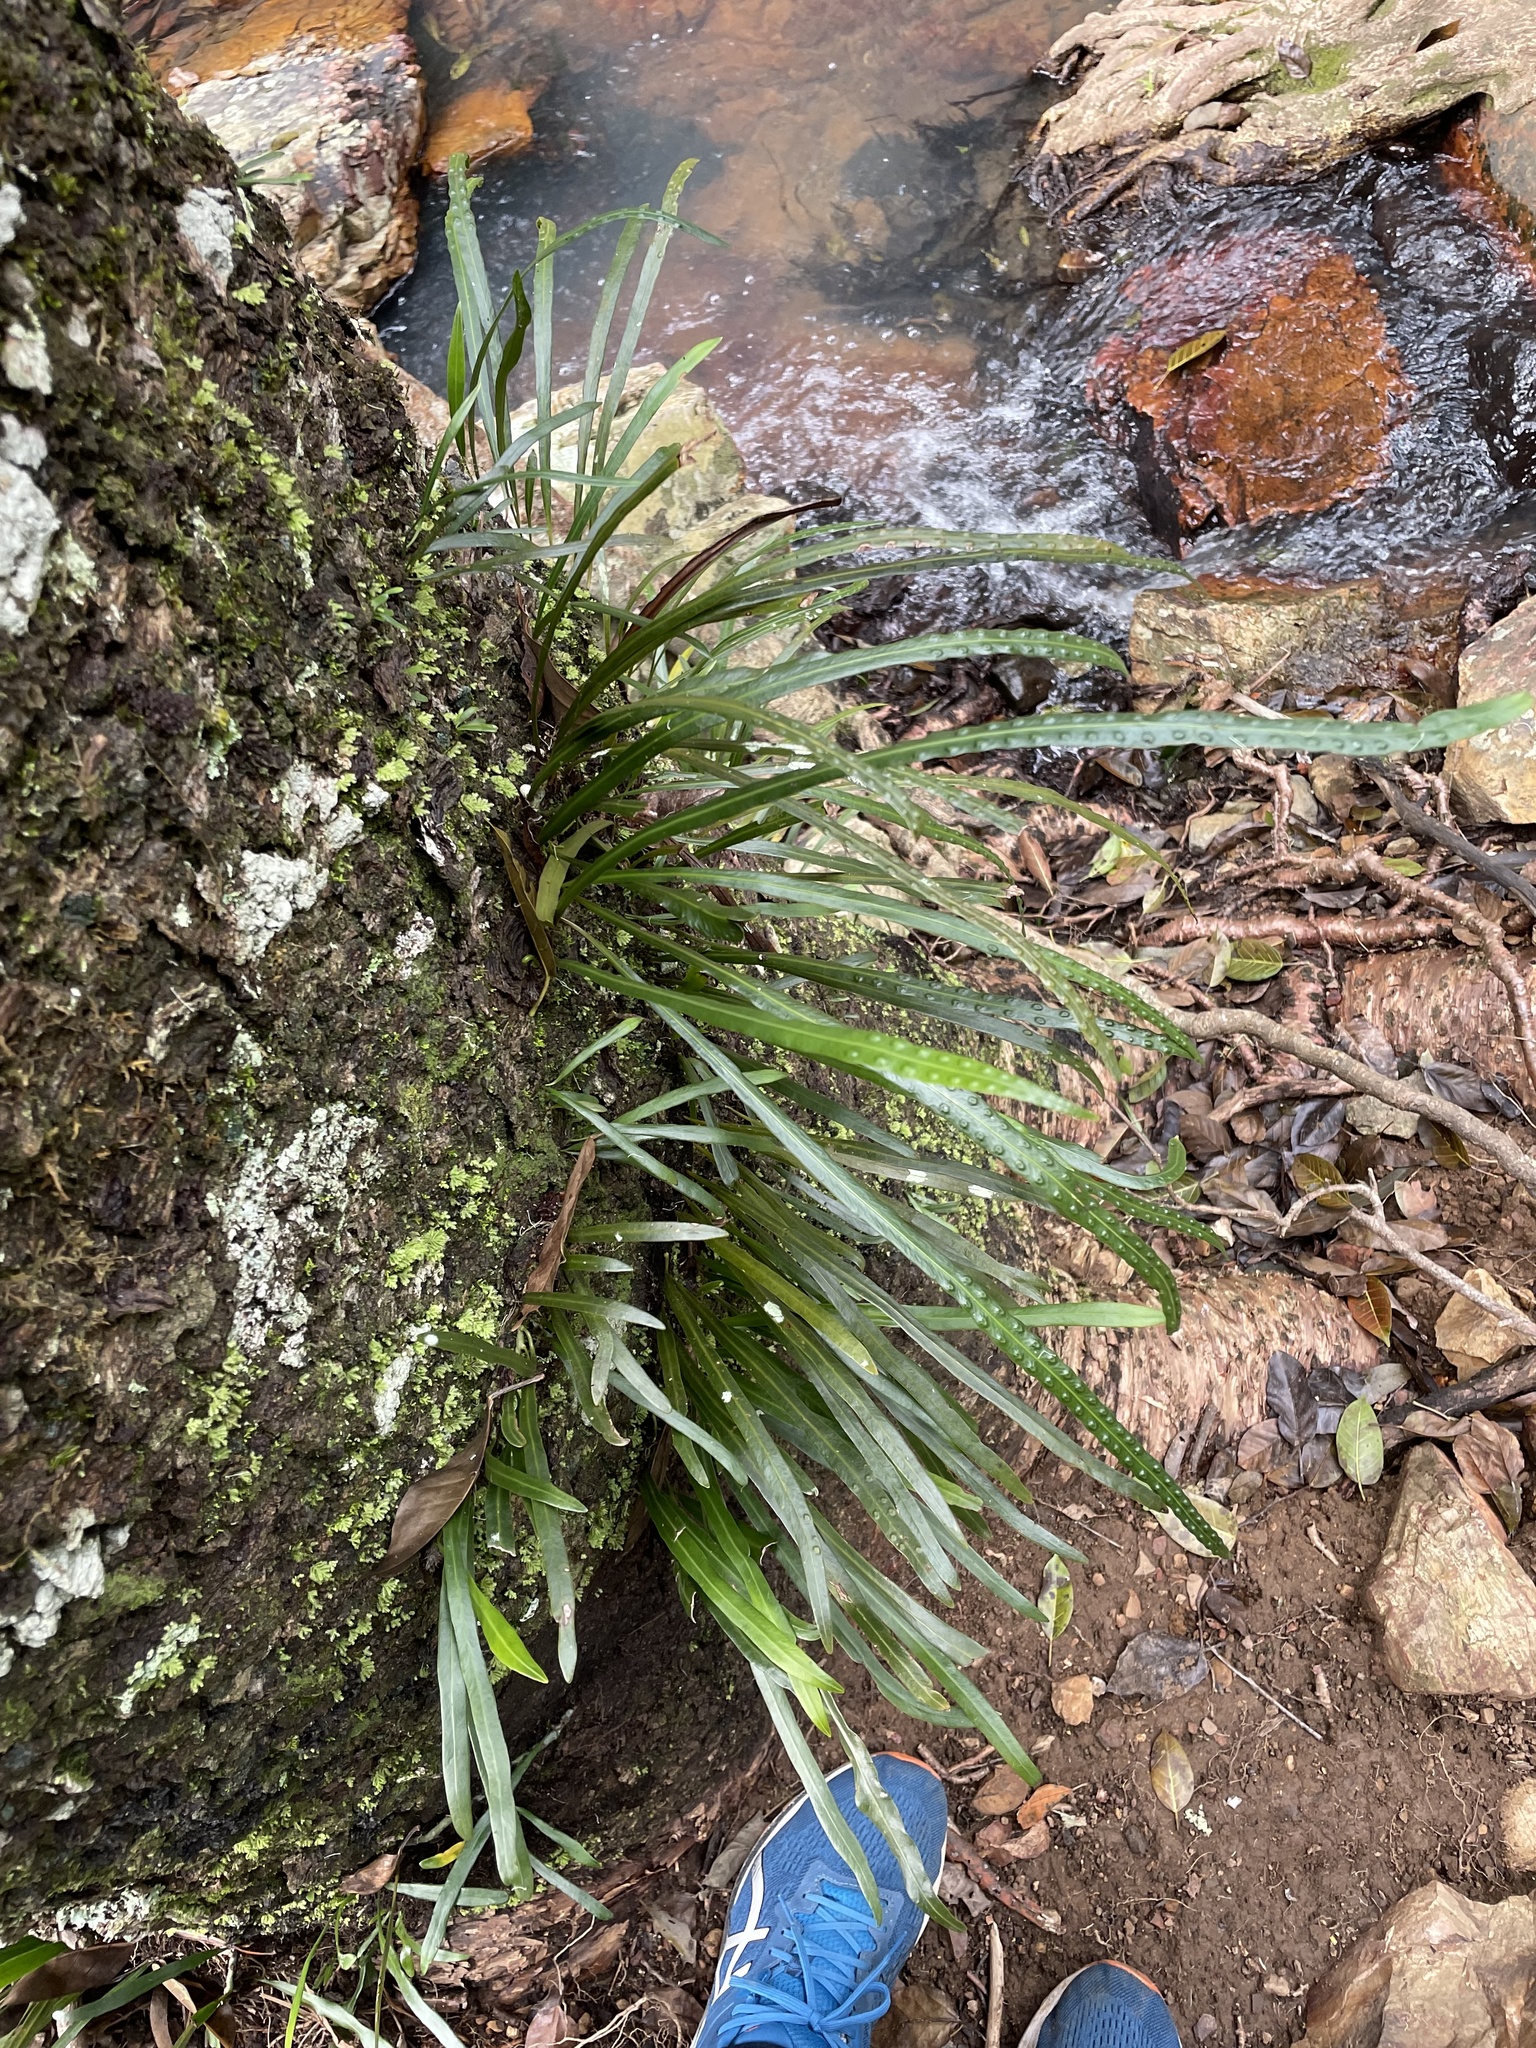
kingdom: Plantae
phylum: Tracheophyta
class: Polypodiopsida
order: Polypodiales
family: Polypodiaceae
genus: Dictymia
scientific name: Dictymia brownii
